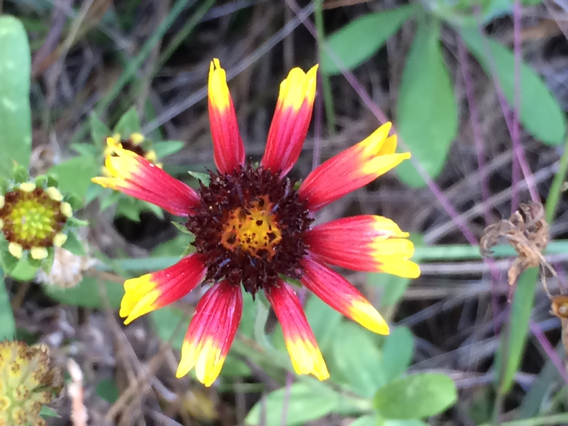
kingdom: Plantae
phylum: Tracheophyta
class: Magnoliopsida
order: Asterales
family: Asteraceae
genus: Gaillardia
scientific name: Gaillardia pulchella
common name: Firewheel
